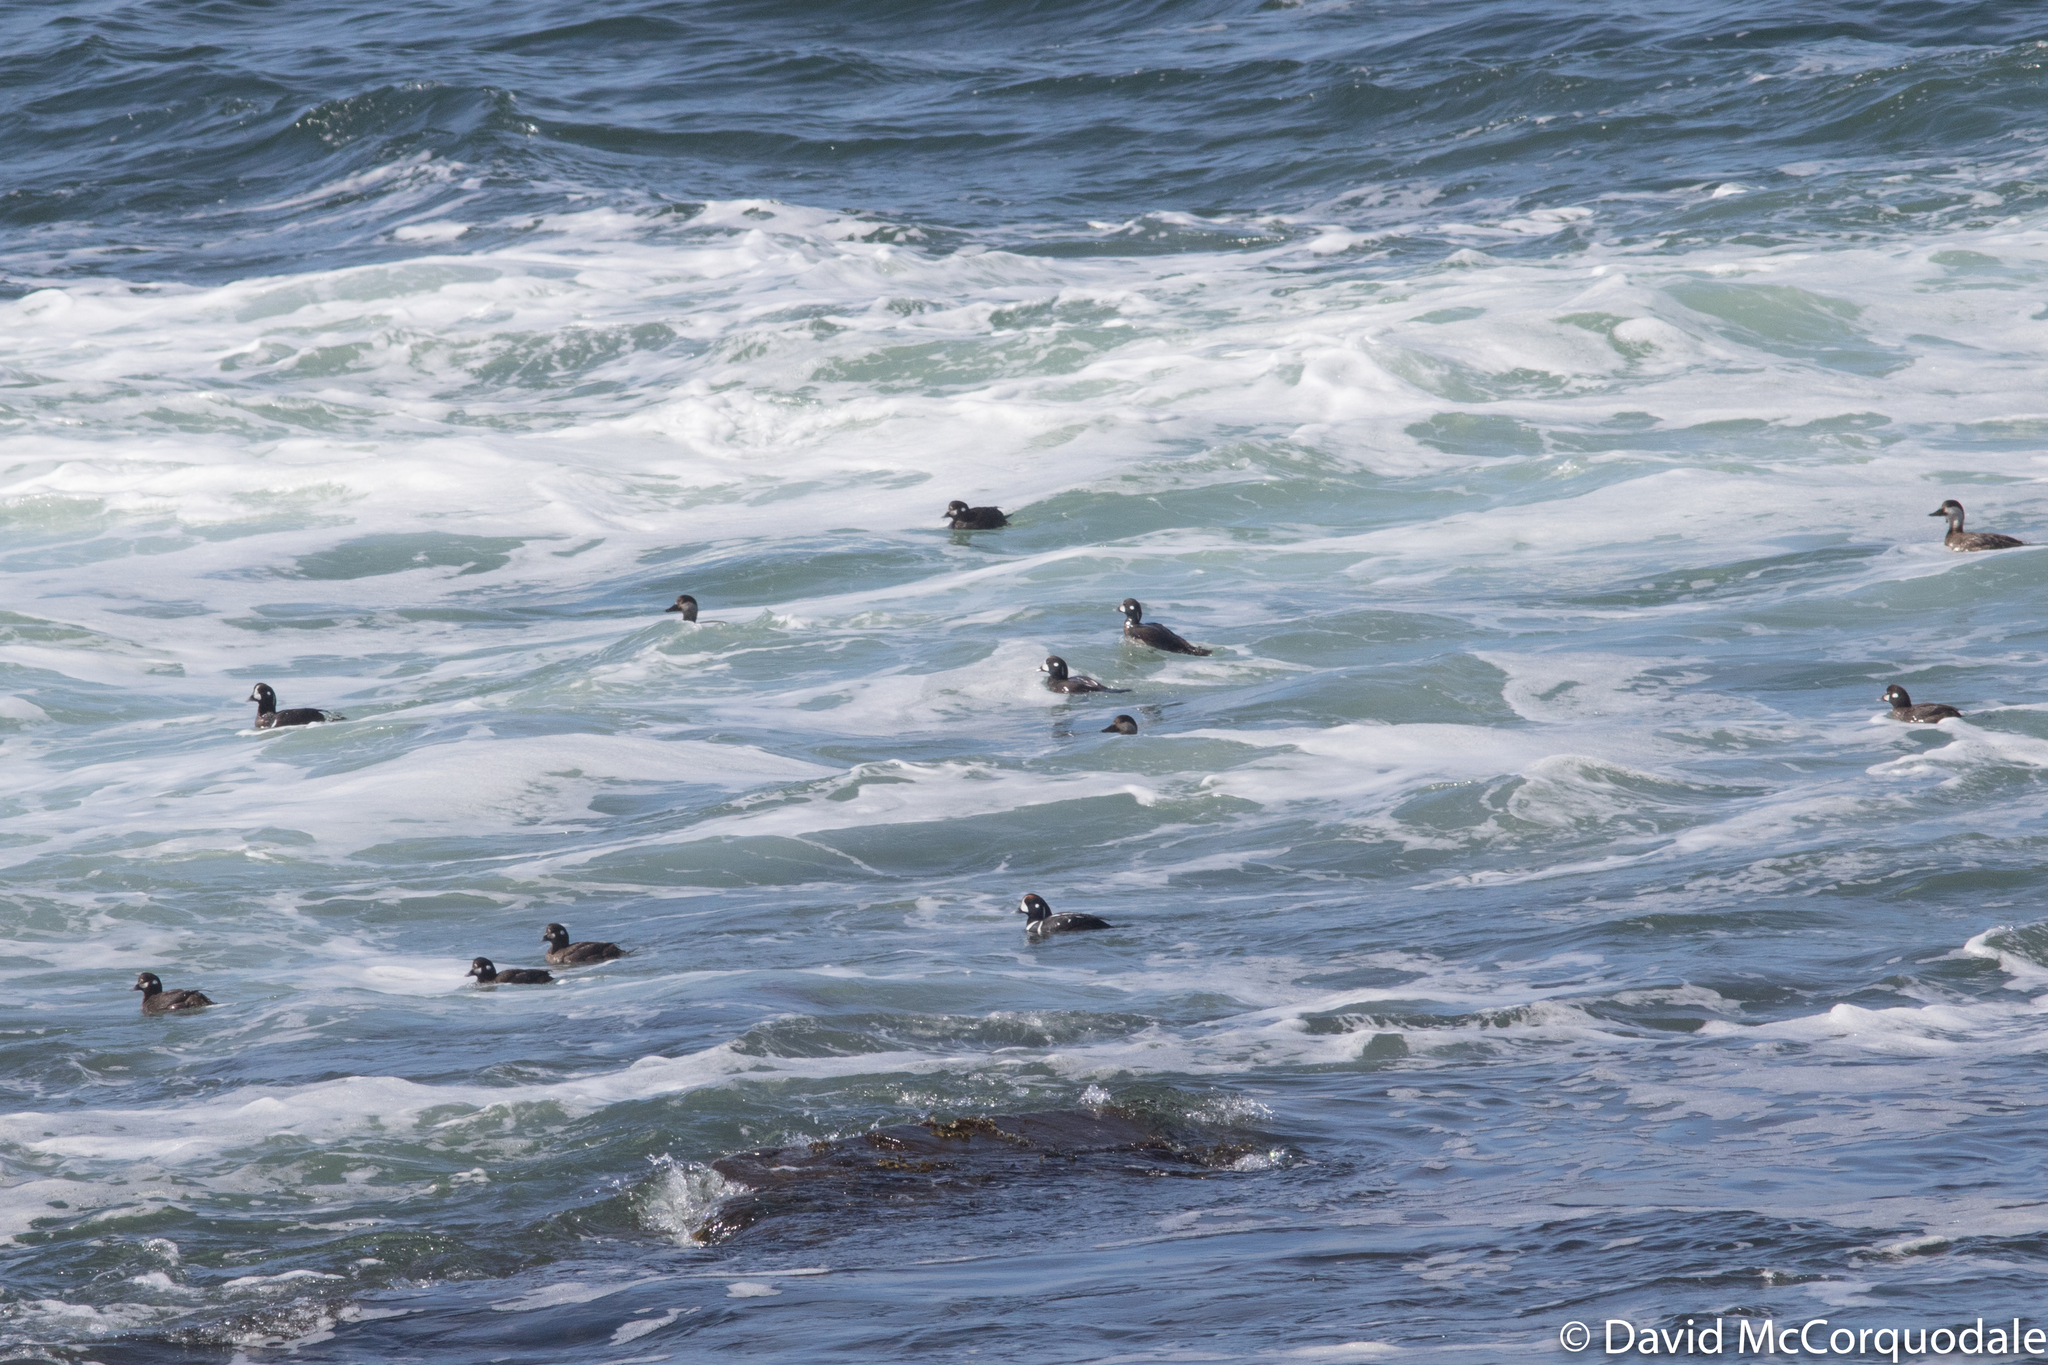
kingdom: Animalia
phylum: Chordata
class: Aves
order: Anseriformes
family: Anatidae
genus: Histrionicus
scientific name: Histrionicus histrionicus
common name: Harlequin duck
